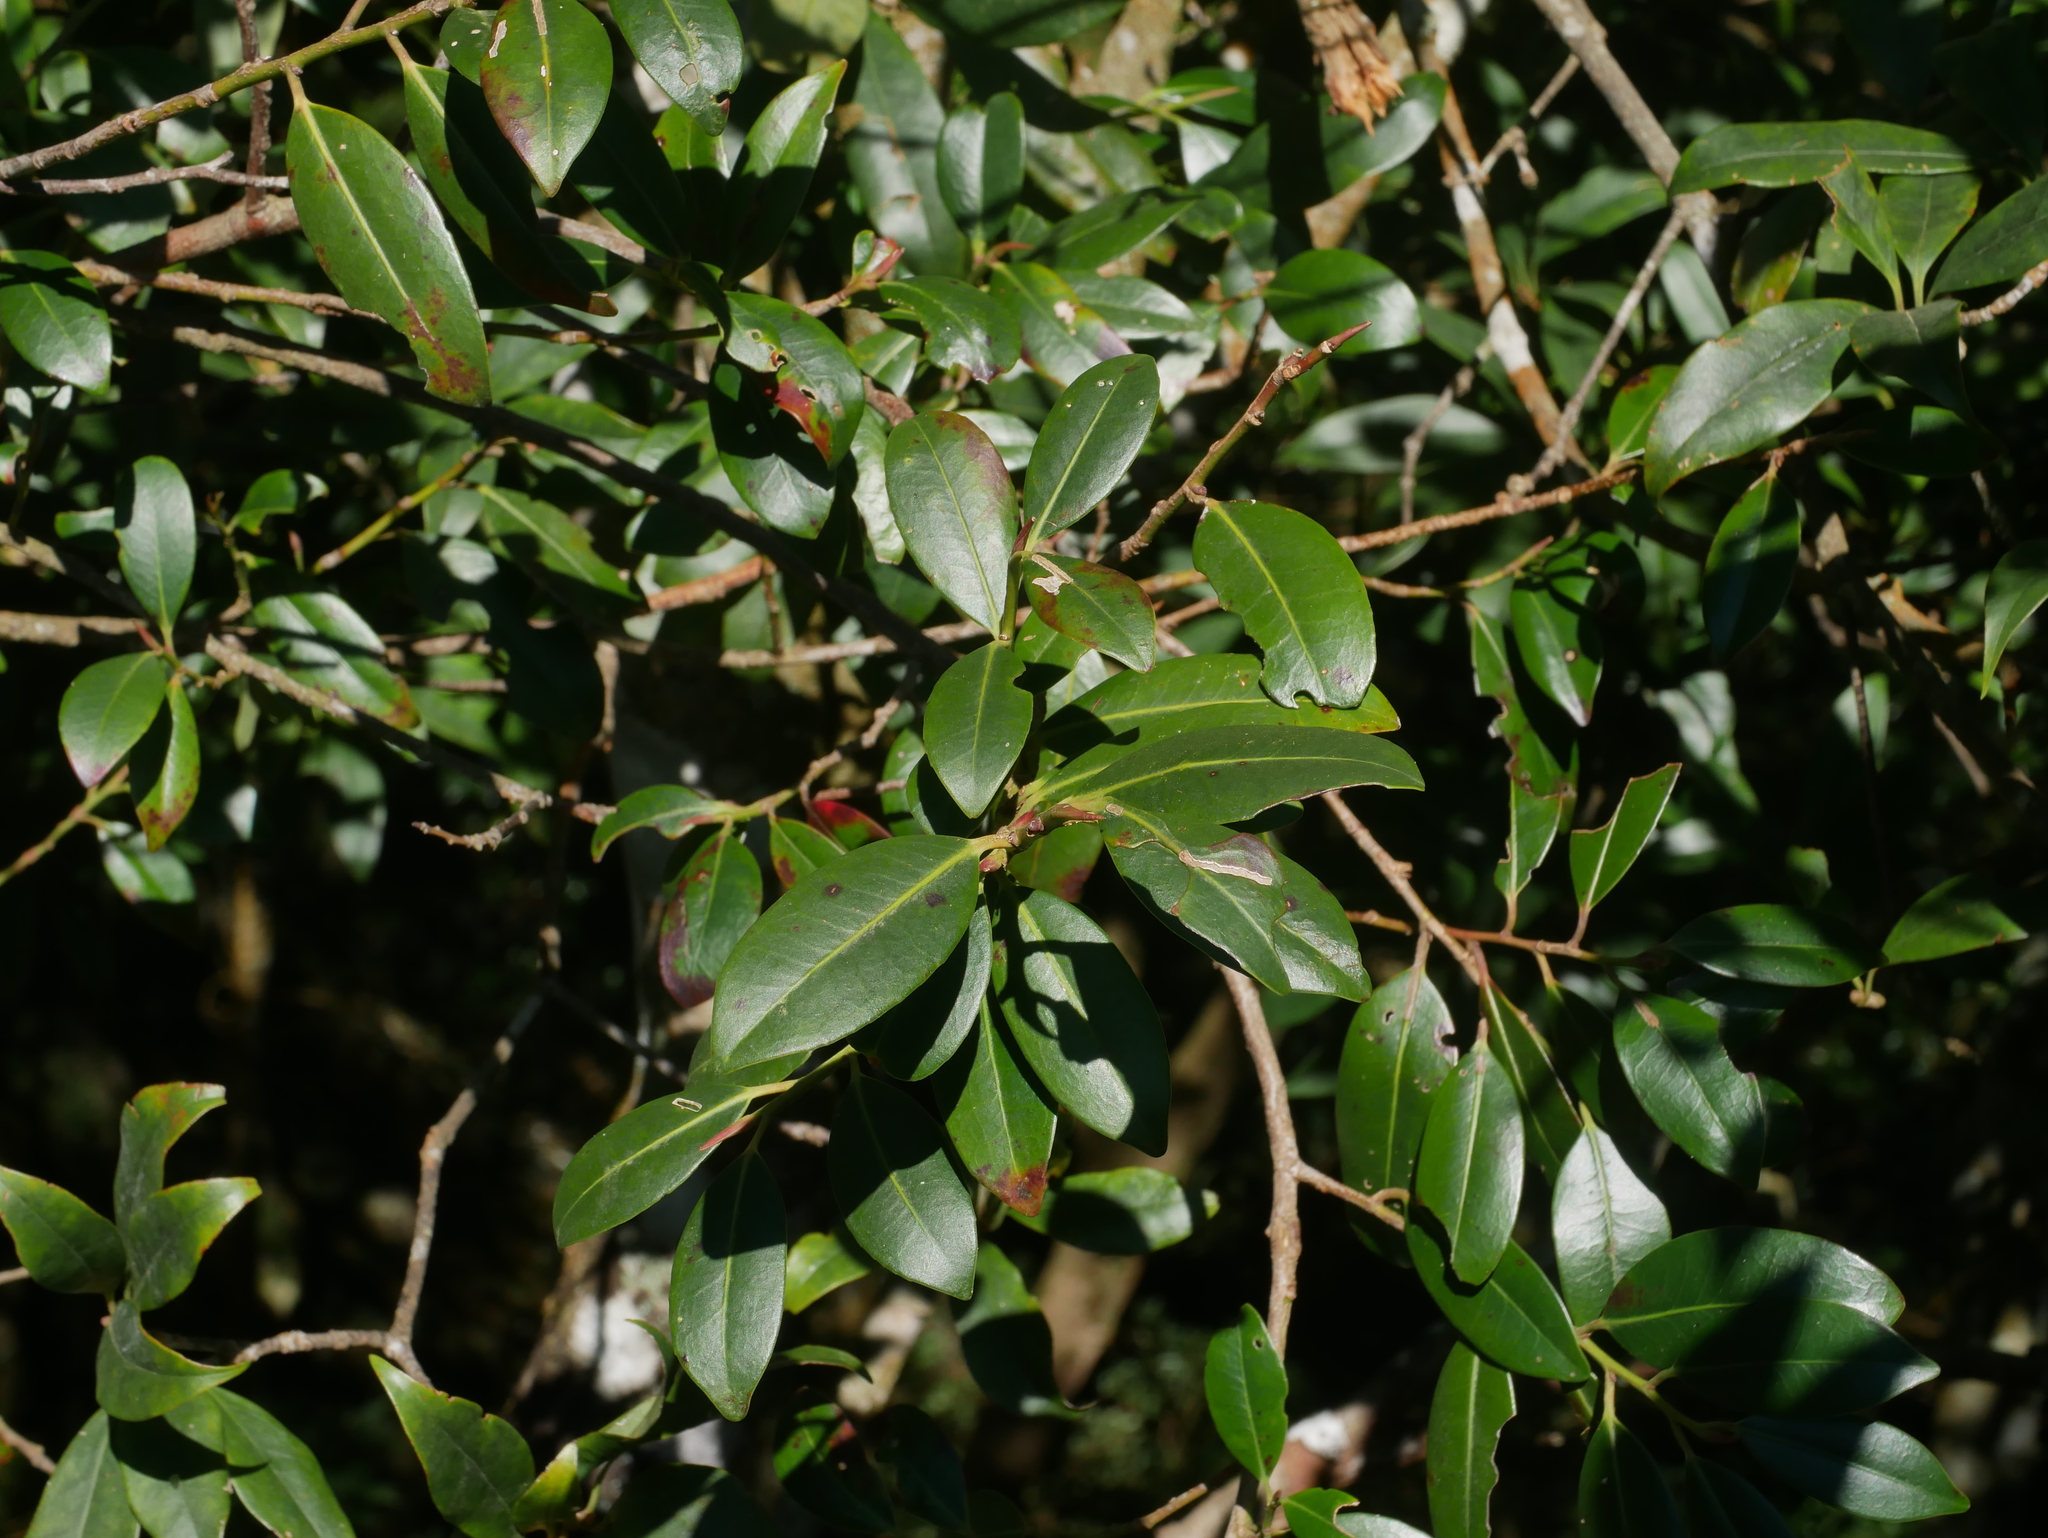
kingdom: Plantae
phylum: Tracheophyta
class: Magnoliopsida
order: Ericales
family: Pentaphylacaceae
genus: Cleyera
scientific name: Cleyera japonica
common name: Sakaki
